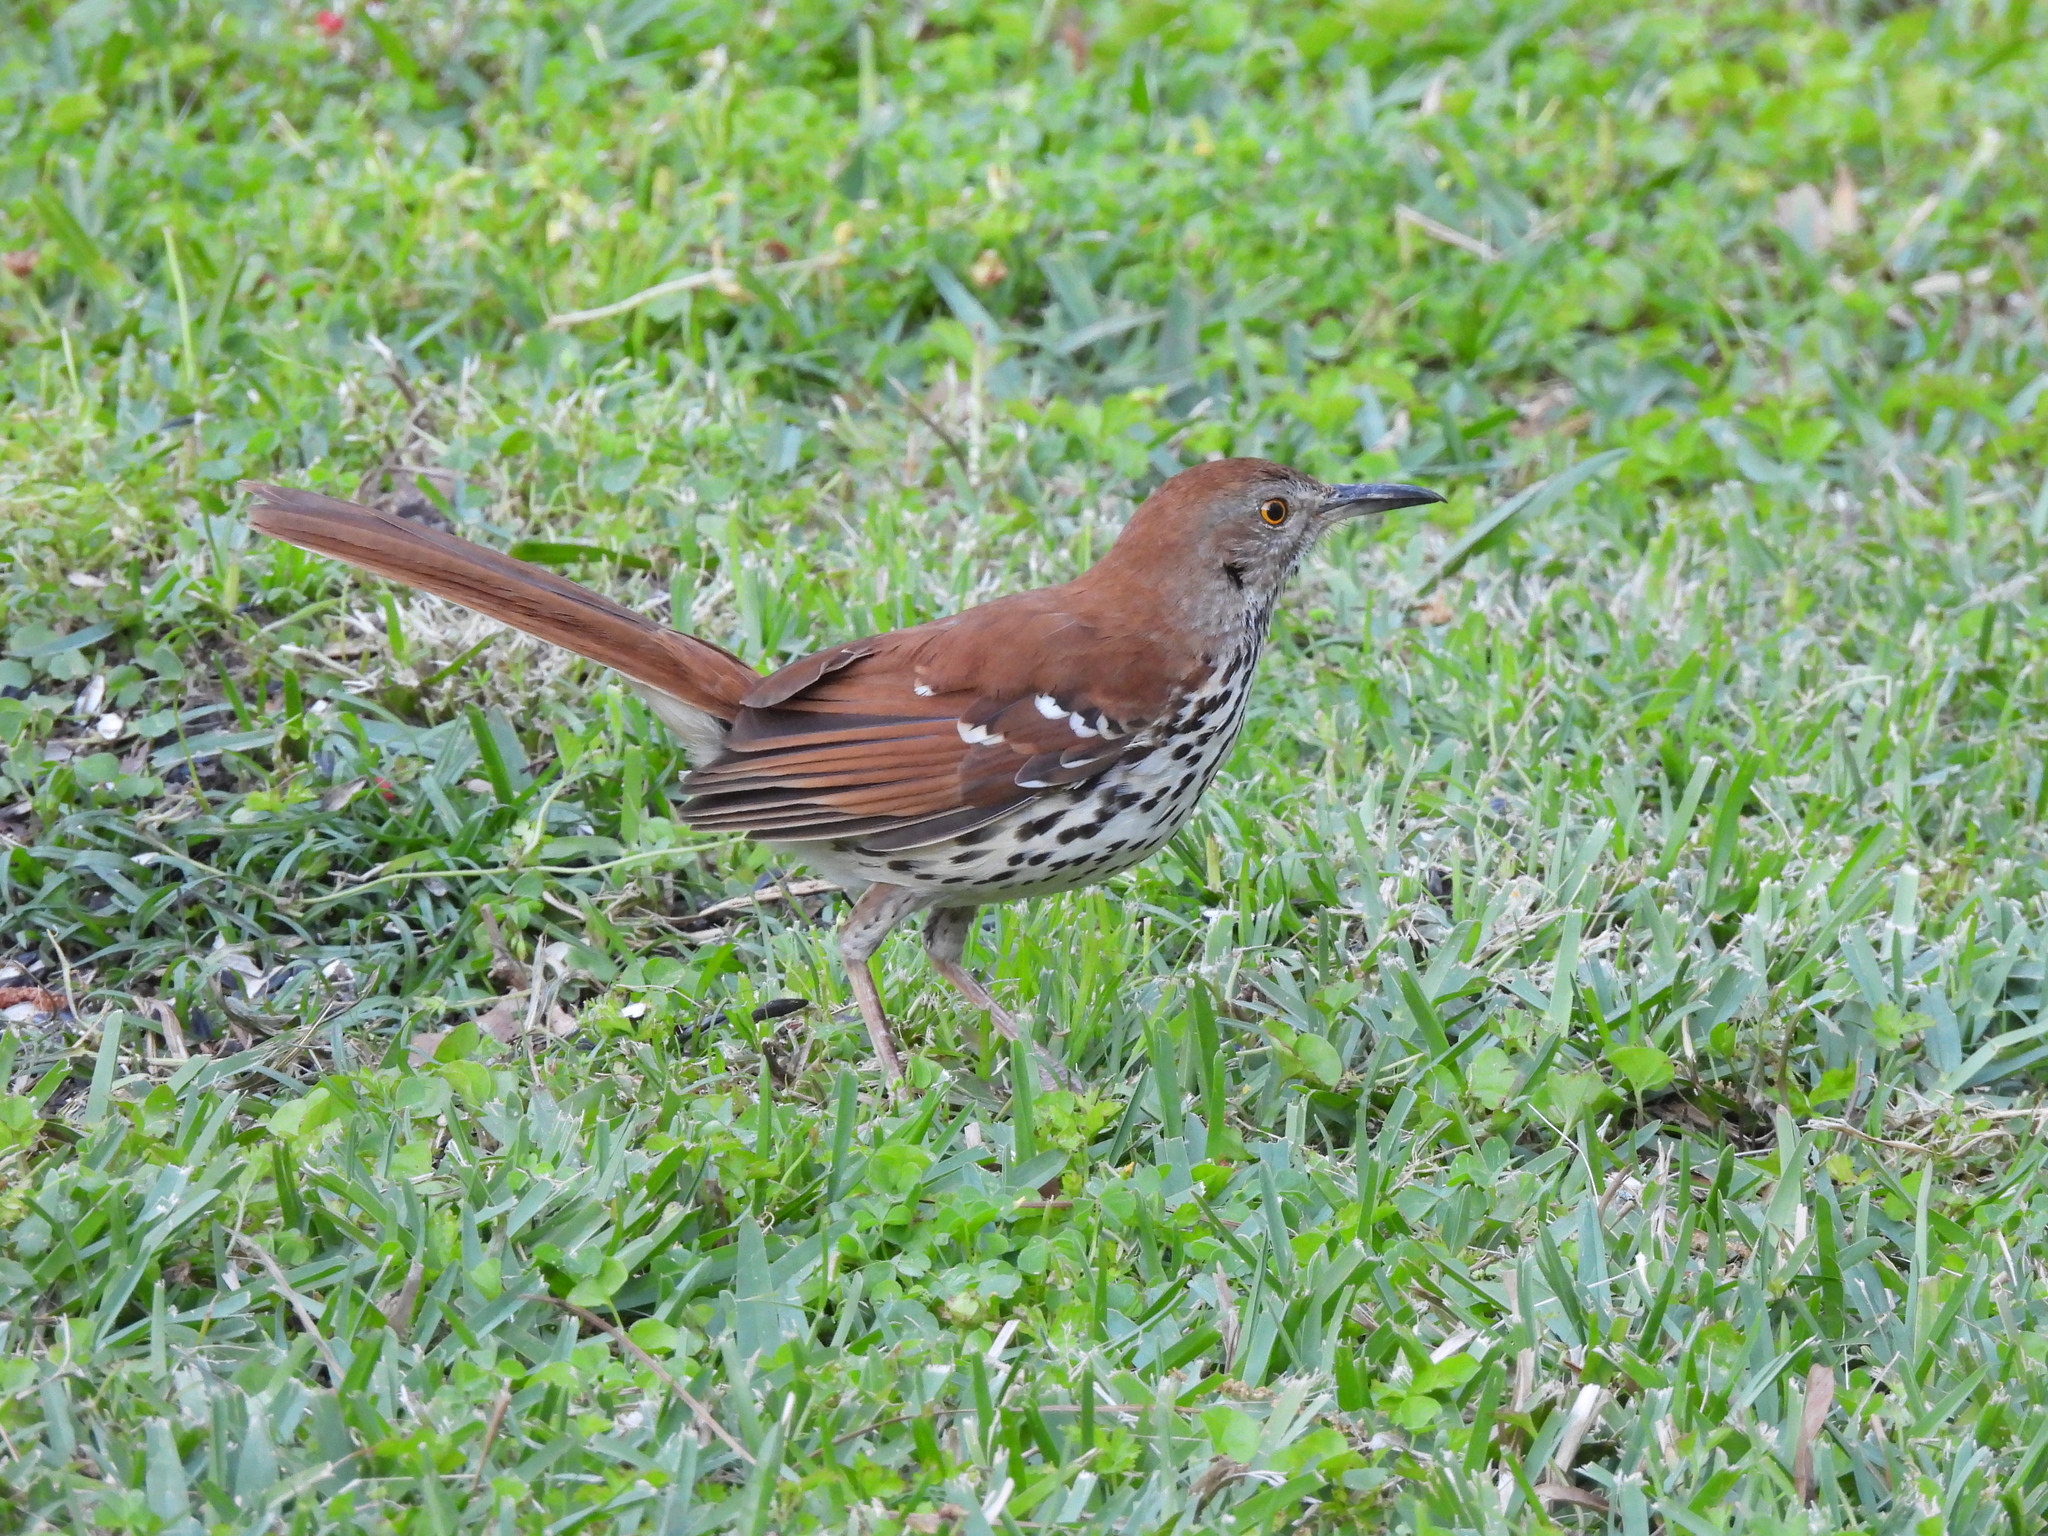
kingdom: Animalia
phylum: Chordata
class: Aves
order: Passeriformes
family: Mimidae
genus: Toxostoma
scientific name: Toxostoma rufum
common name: Brown thrasher
